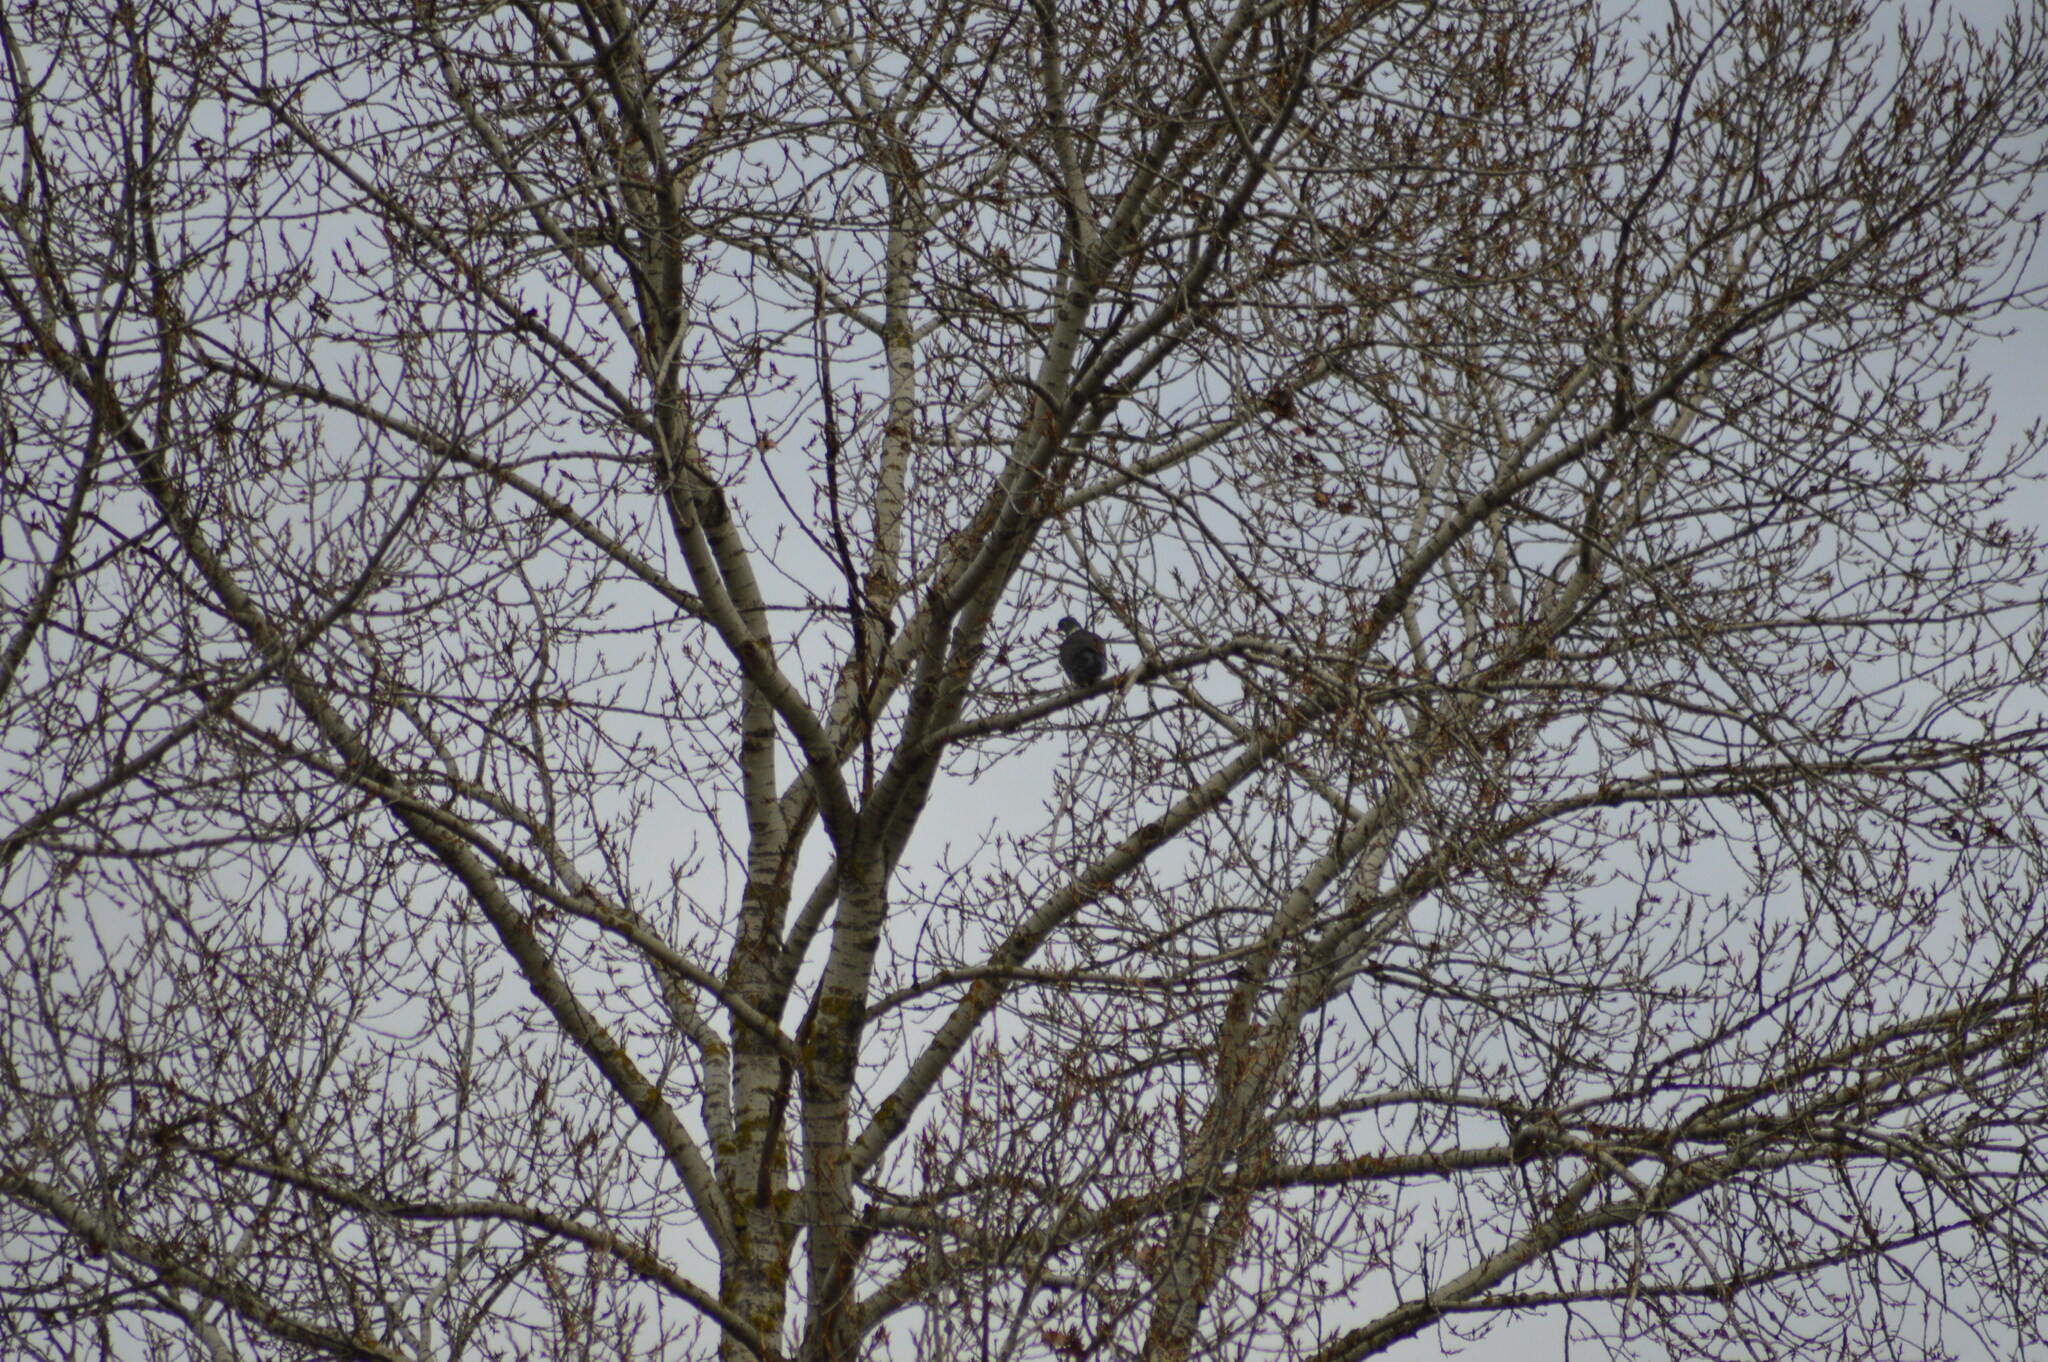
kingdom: Animalia
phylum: Chordata
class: Aves
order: Columbiformes
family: Columbidae
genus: Columba
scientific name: Columba palumbus
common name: Common wood pigeon
